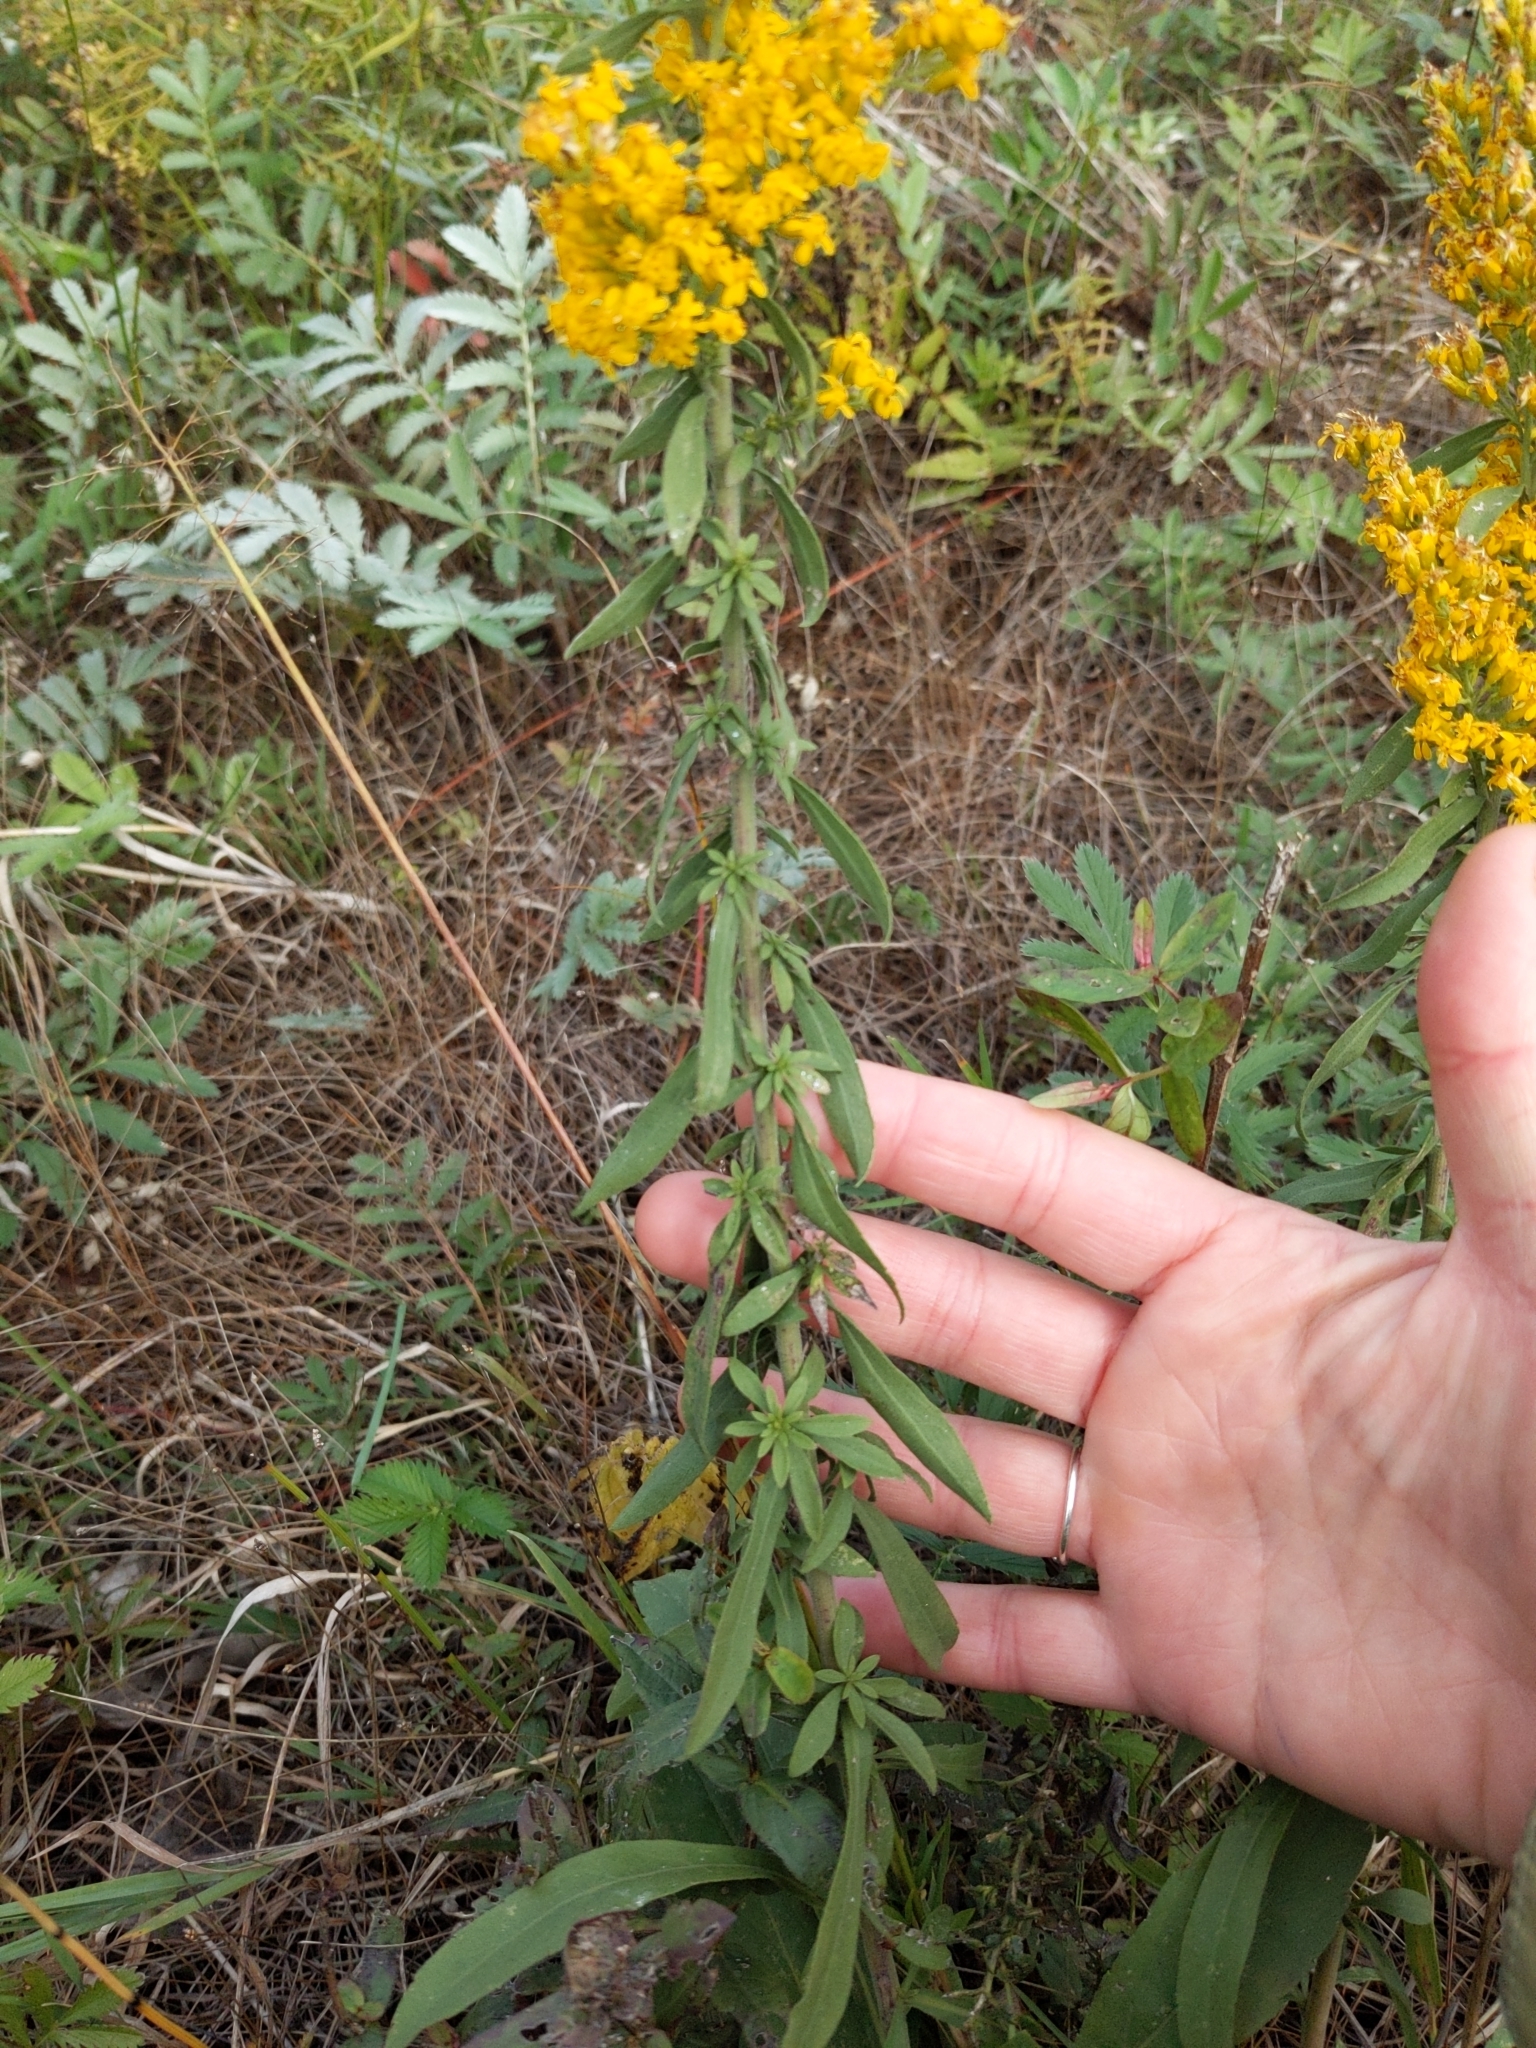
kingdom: Plantae
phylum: Tracheophyta
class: Magnoliopsida
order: Asterales
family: Asteraceae
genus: Solidago
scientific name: Solidago nemoralis
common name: Grey goldenrod
